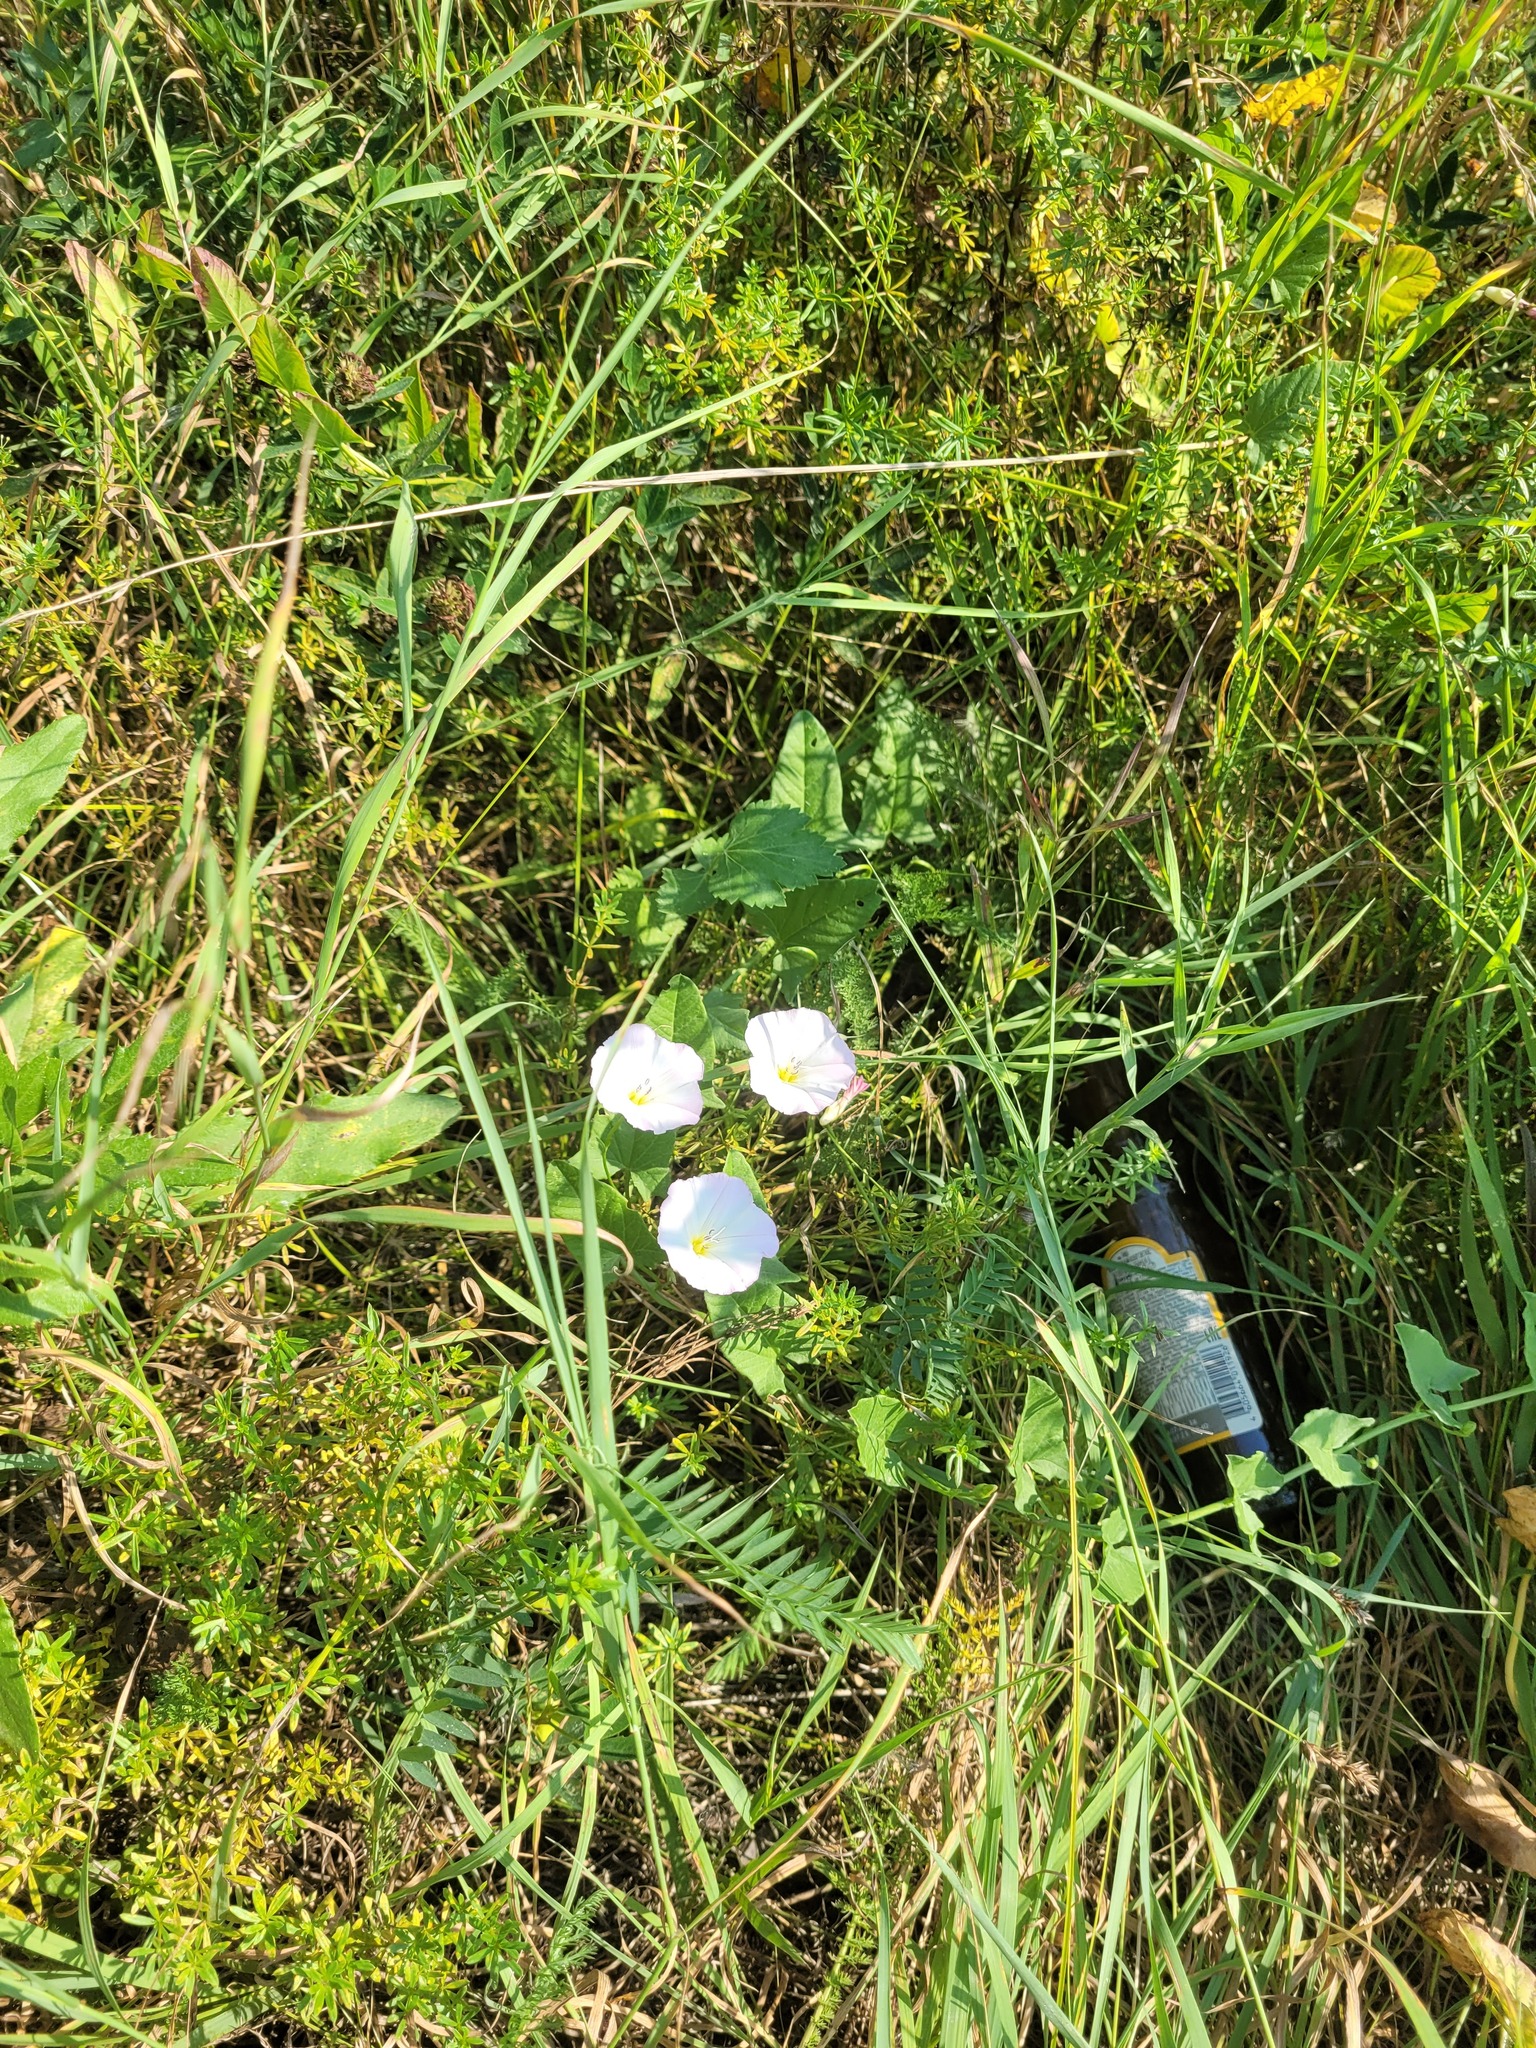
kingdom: Plantae
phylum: Tracheophyta
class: Magnoliopsida
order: Solanales
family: Convolvulaceae
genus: Convolvulus
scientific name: Convolvulus arvensis
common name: Field bindweed
